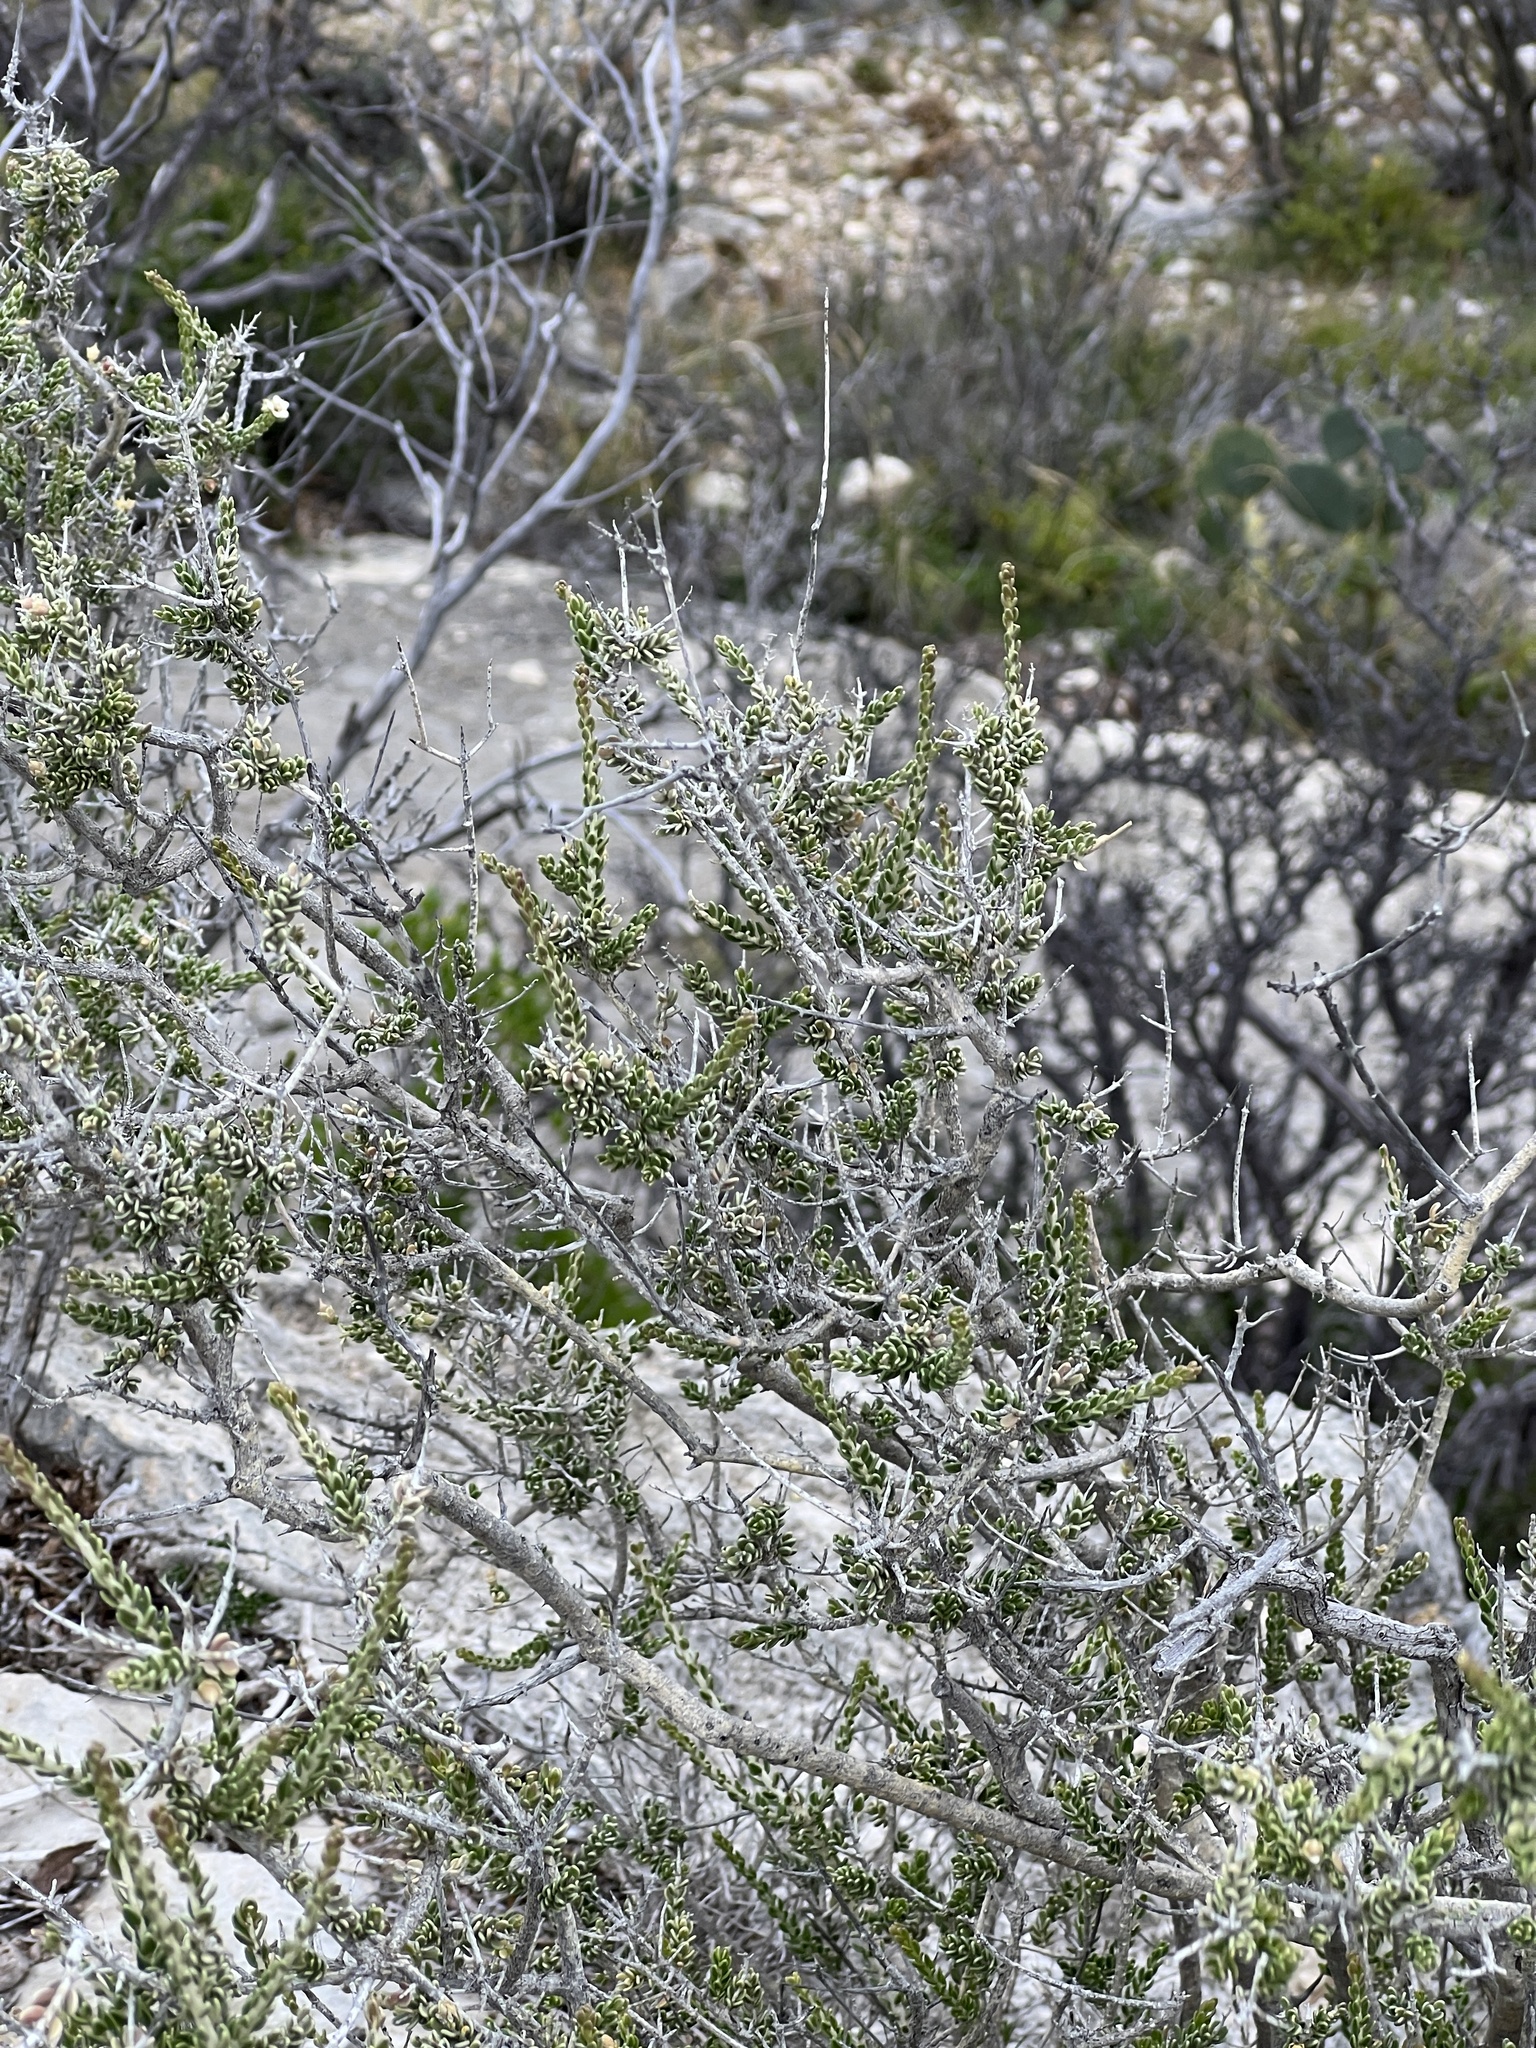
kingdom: Plantae
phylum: Tracheophyta
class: Magnoliopsida
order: Celastrales
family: Celastraceae
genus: Mortonia
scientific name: Mortonia sempervirens
